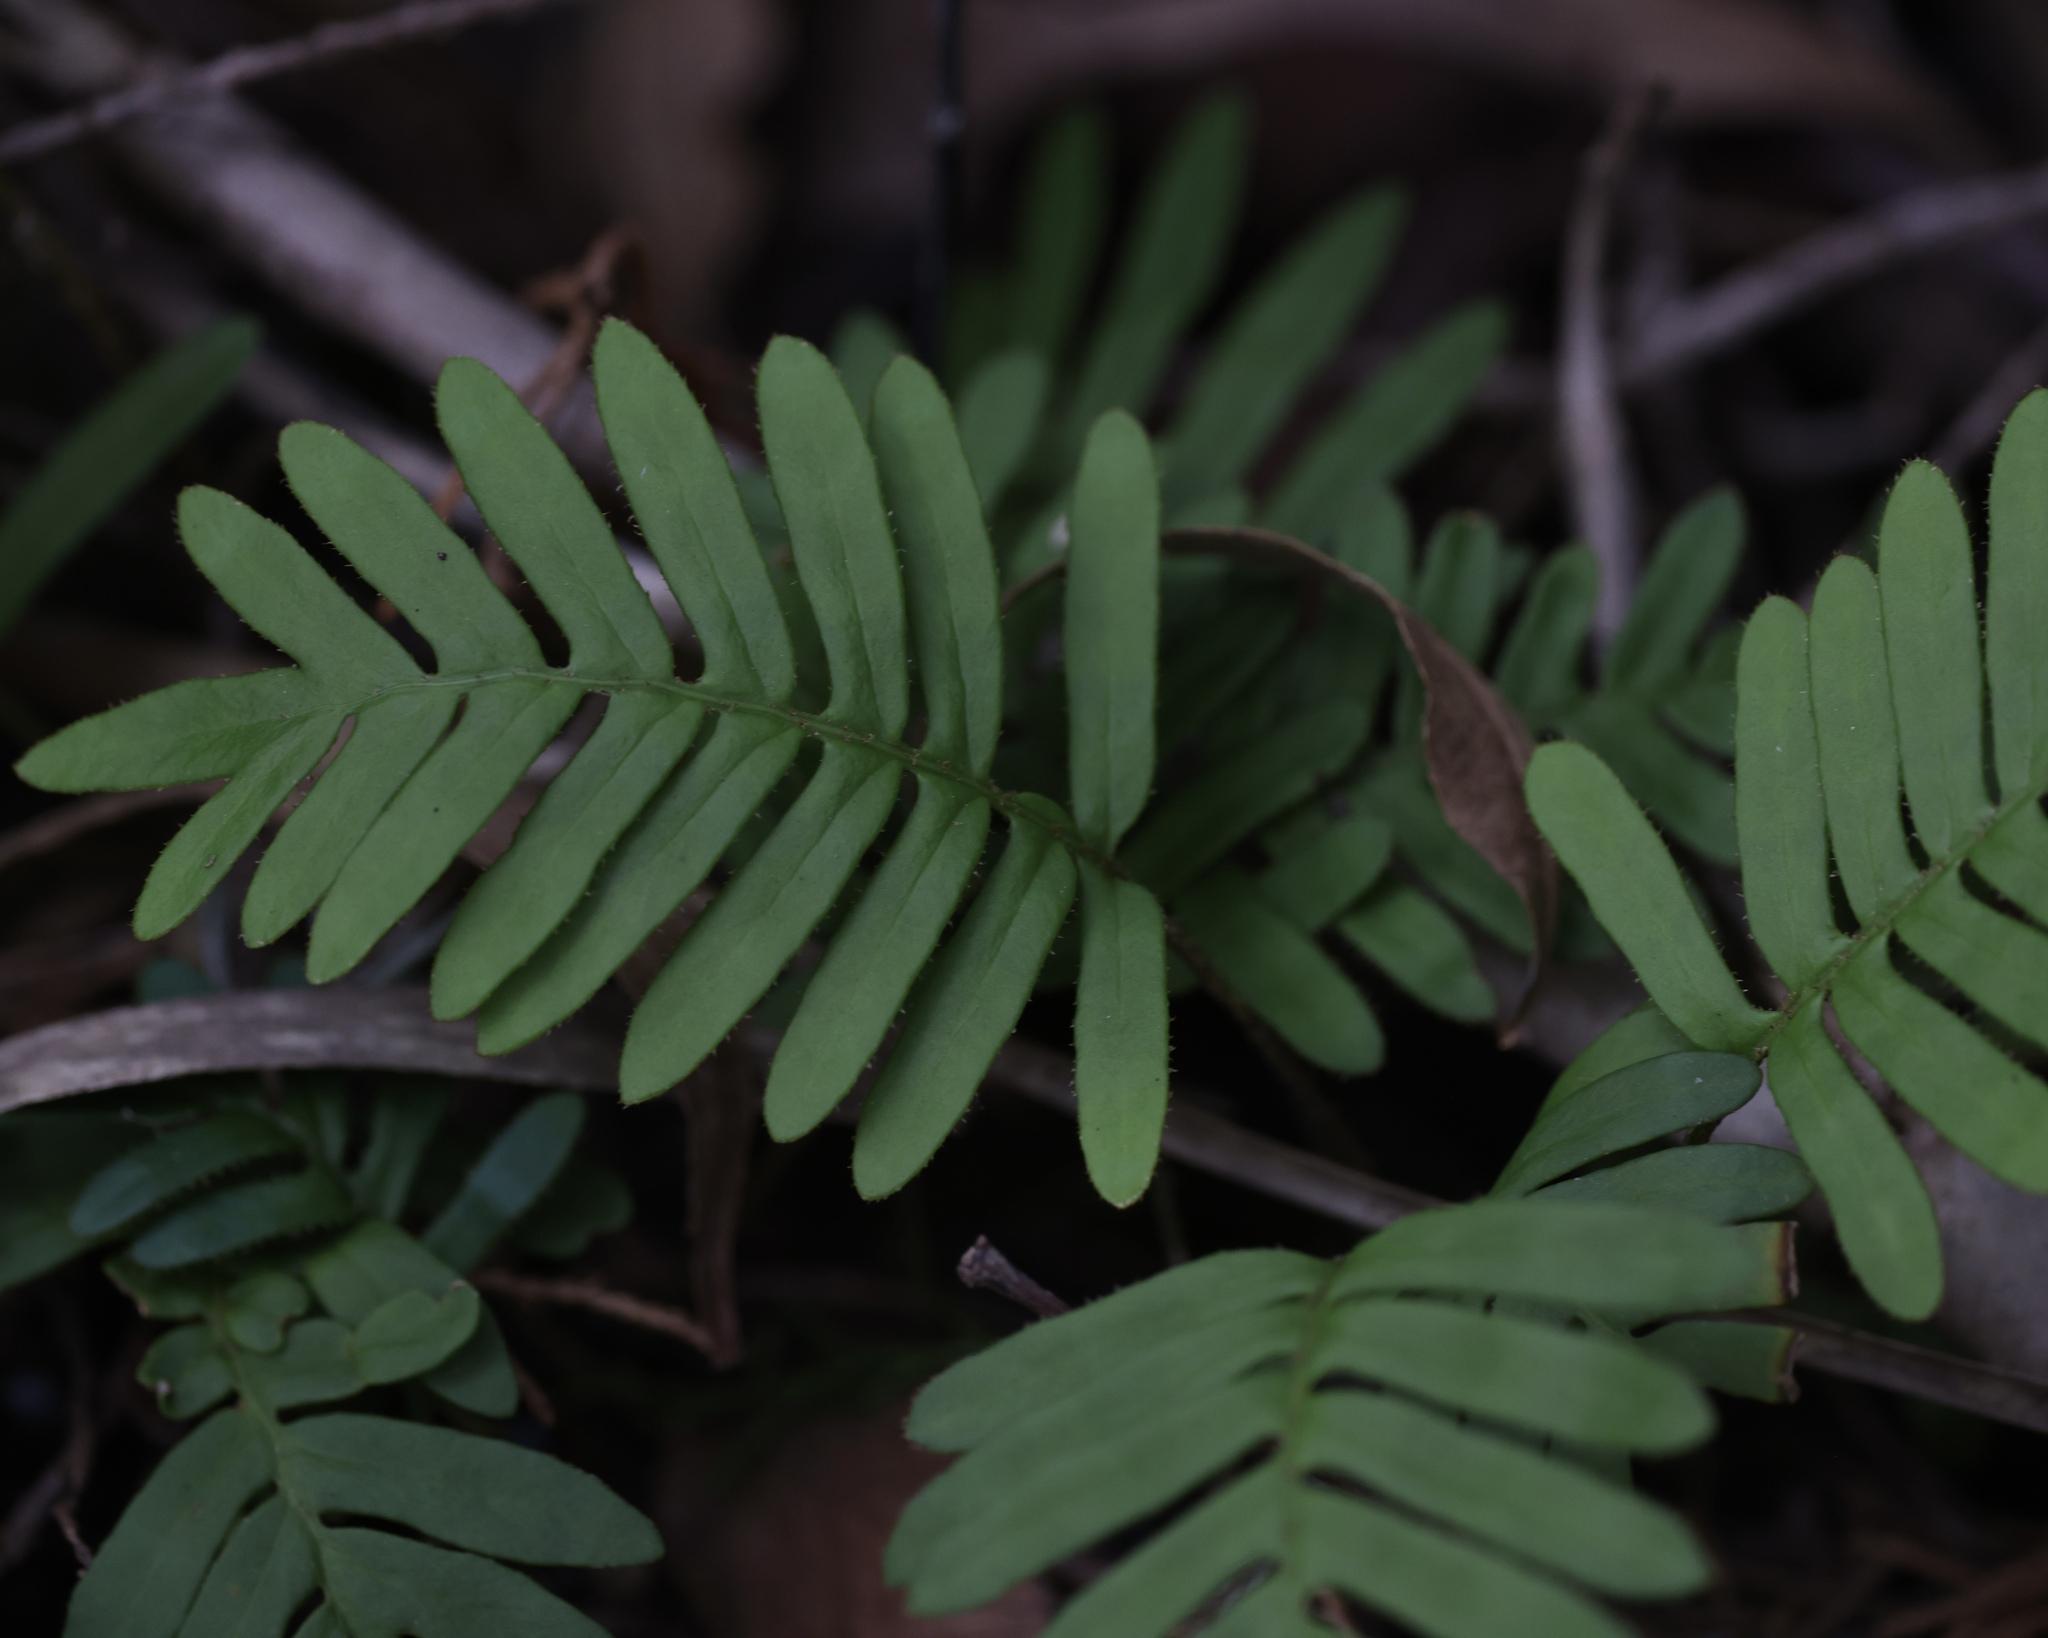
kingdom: Plantae
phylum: Tracheophyta
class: Polypodiopsida
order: Polypodiales
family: Polypodiaceae
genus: Pleopeltis
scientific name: Pleopeltis michauxiana
